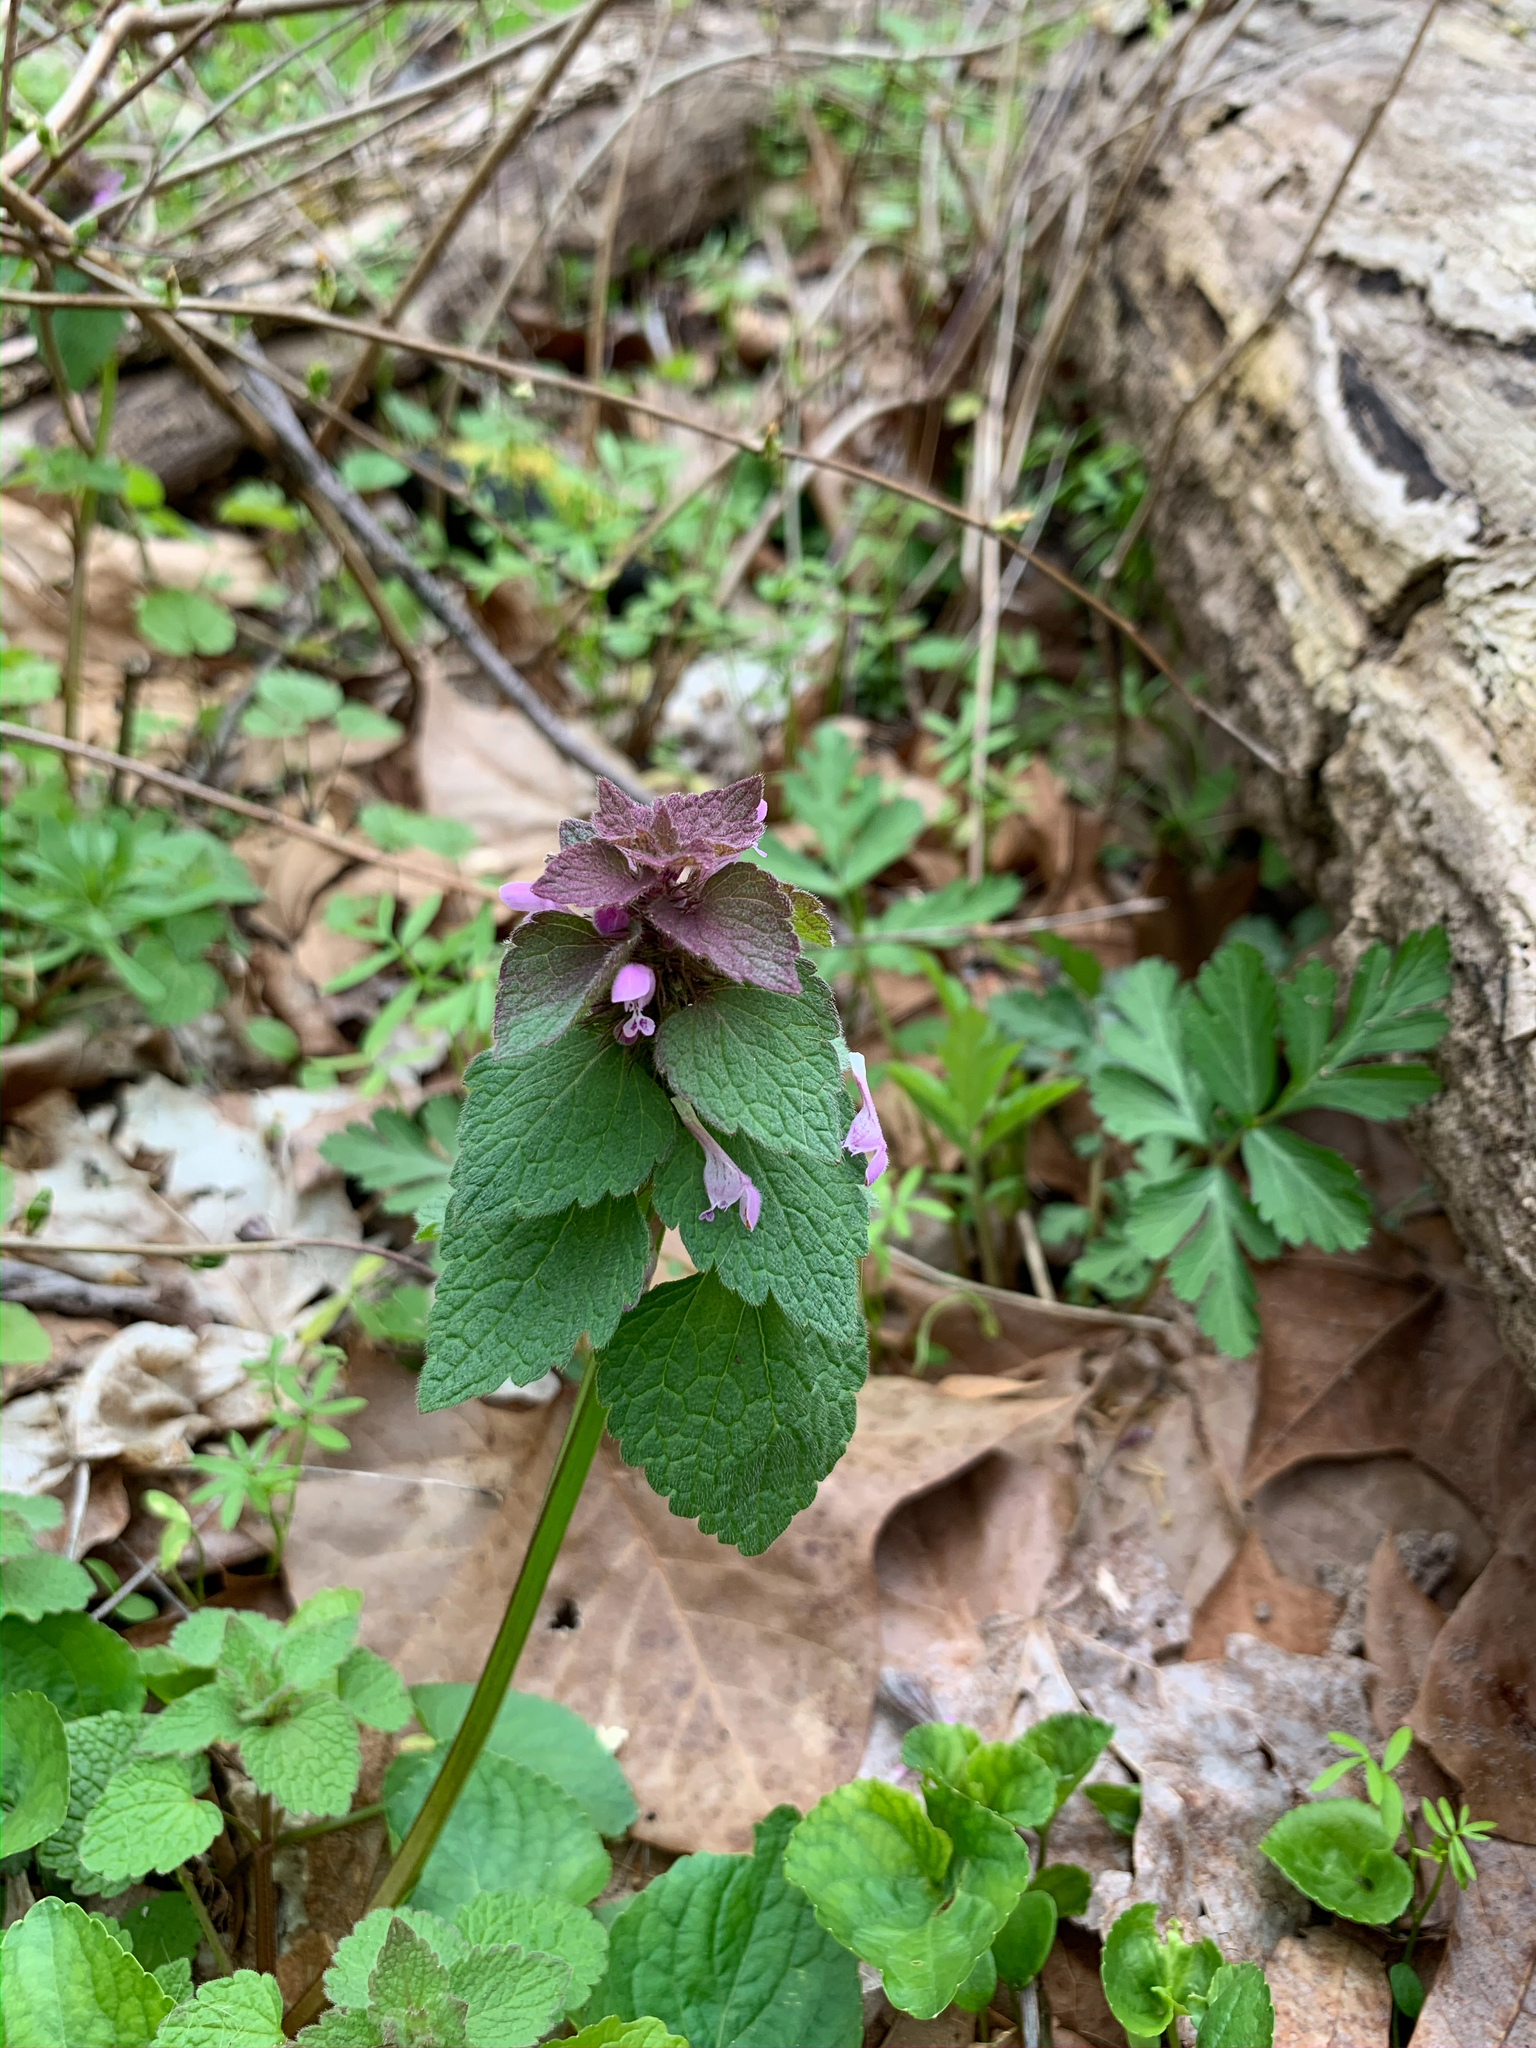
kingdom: Plantae
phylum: Tracheophyta
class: Magnoliopsida
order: Lamiales
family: Lamiaceae
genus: Lamium
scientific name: Lamium purpureum
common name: Red dead-nettle
